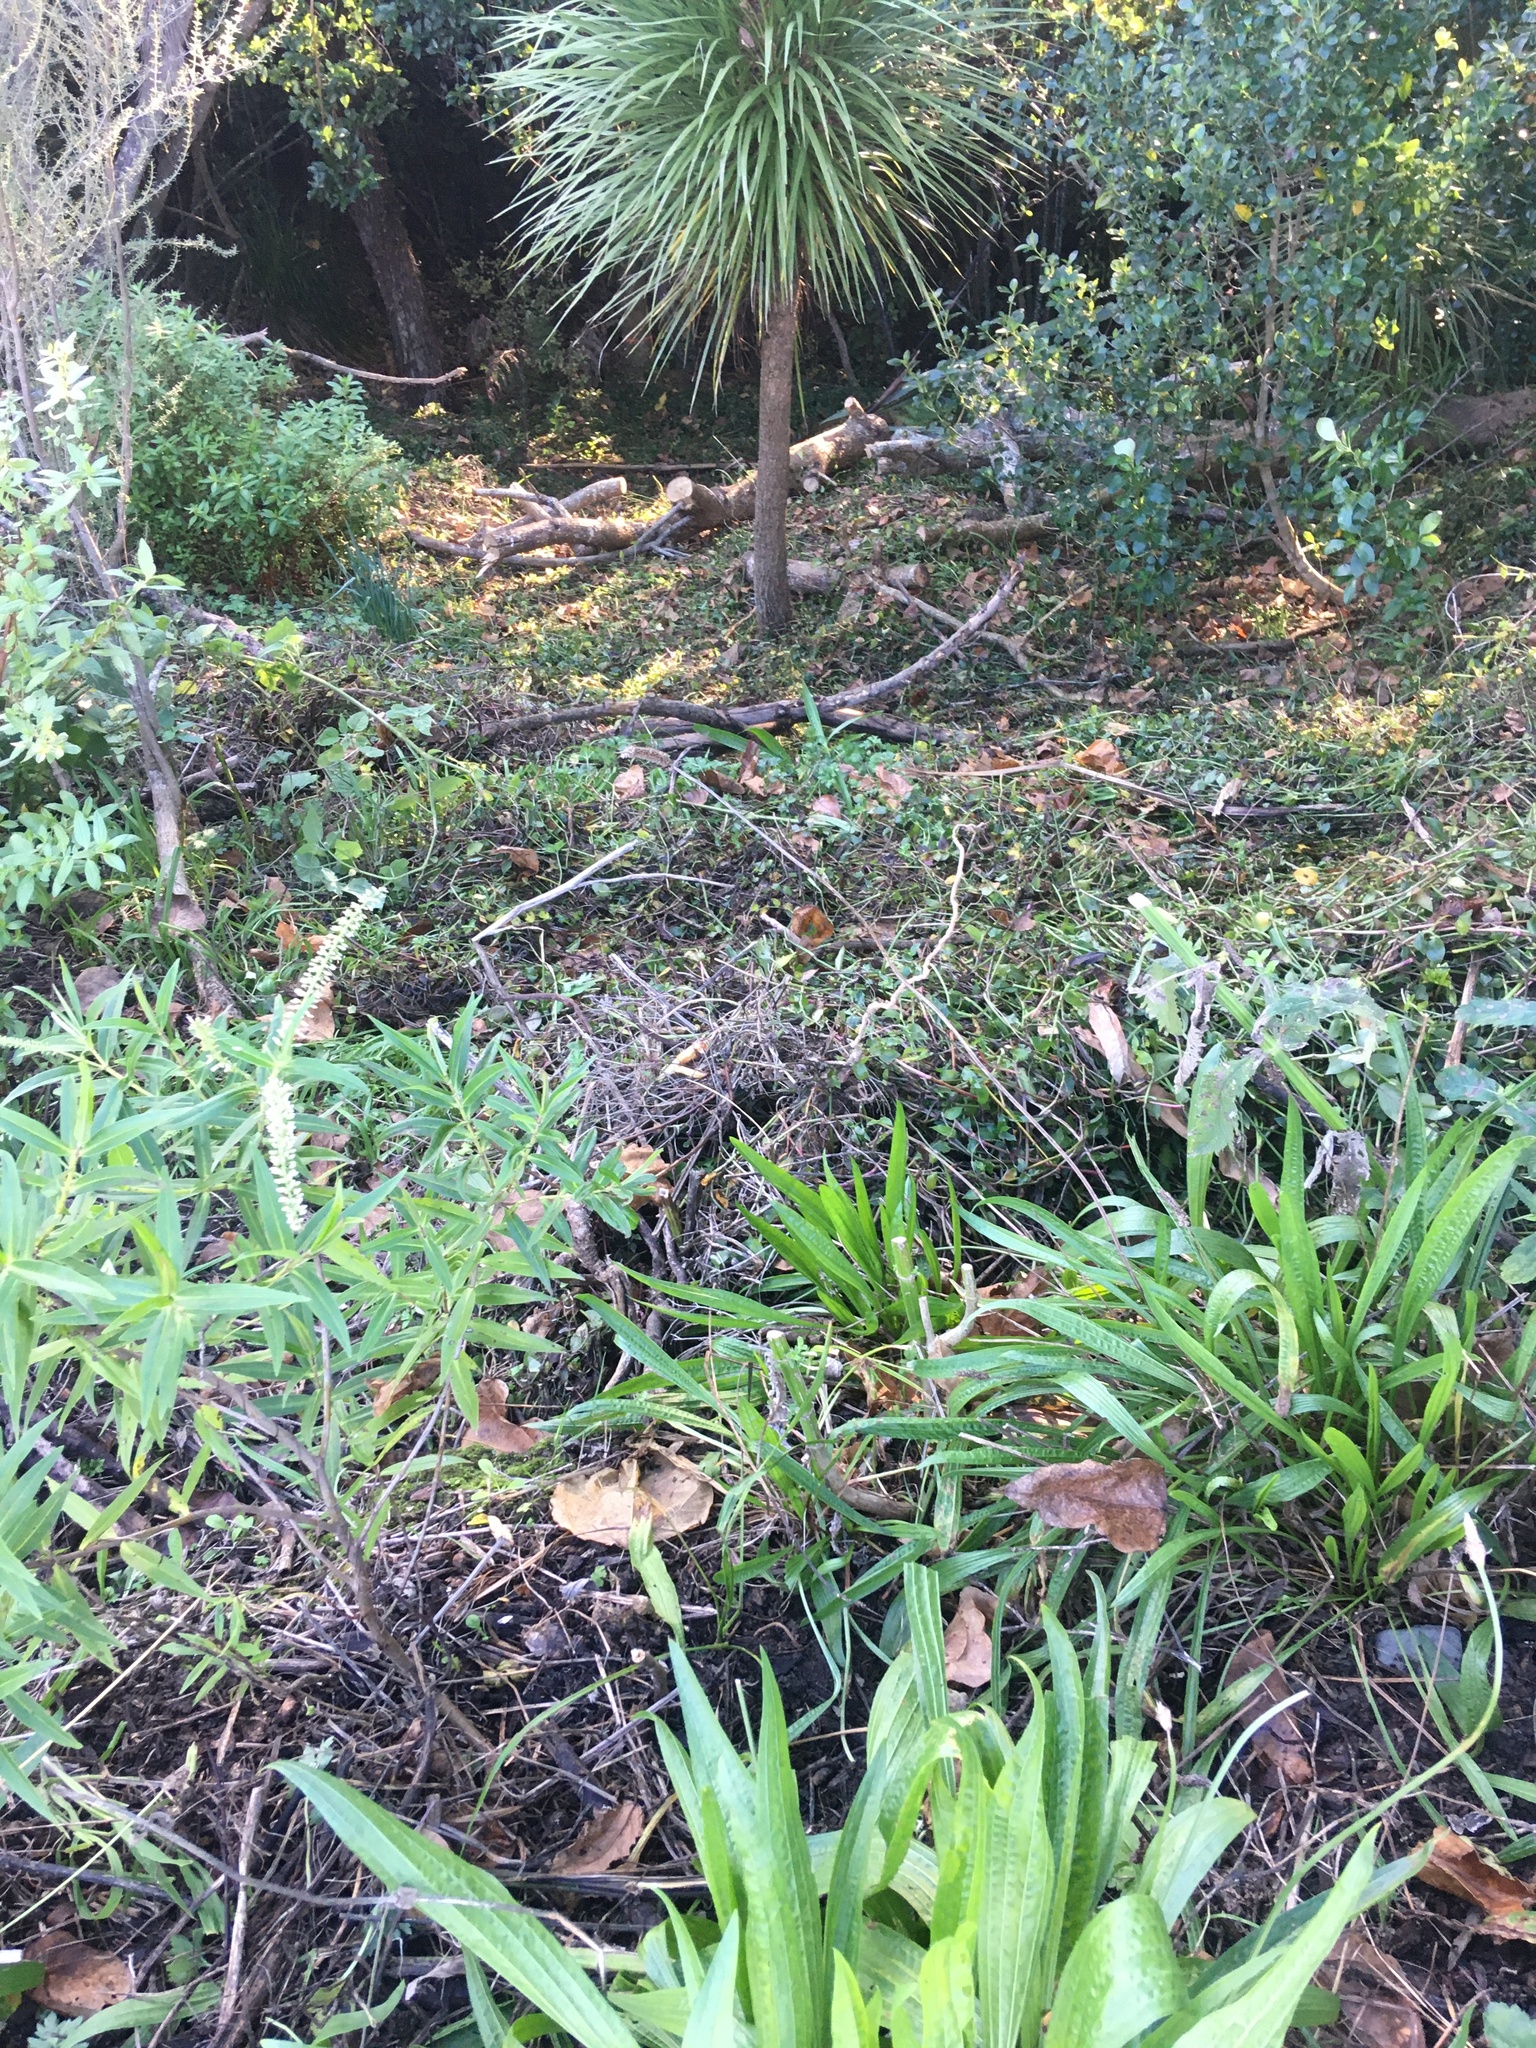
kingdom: Plantae
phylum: Tracheophyta
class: Magnoliopsida
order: Lamiales
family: Plantaginaceae
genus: Plantago
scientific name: Plantago lanceolata
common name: Ribwort plantain
